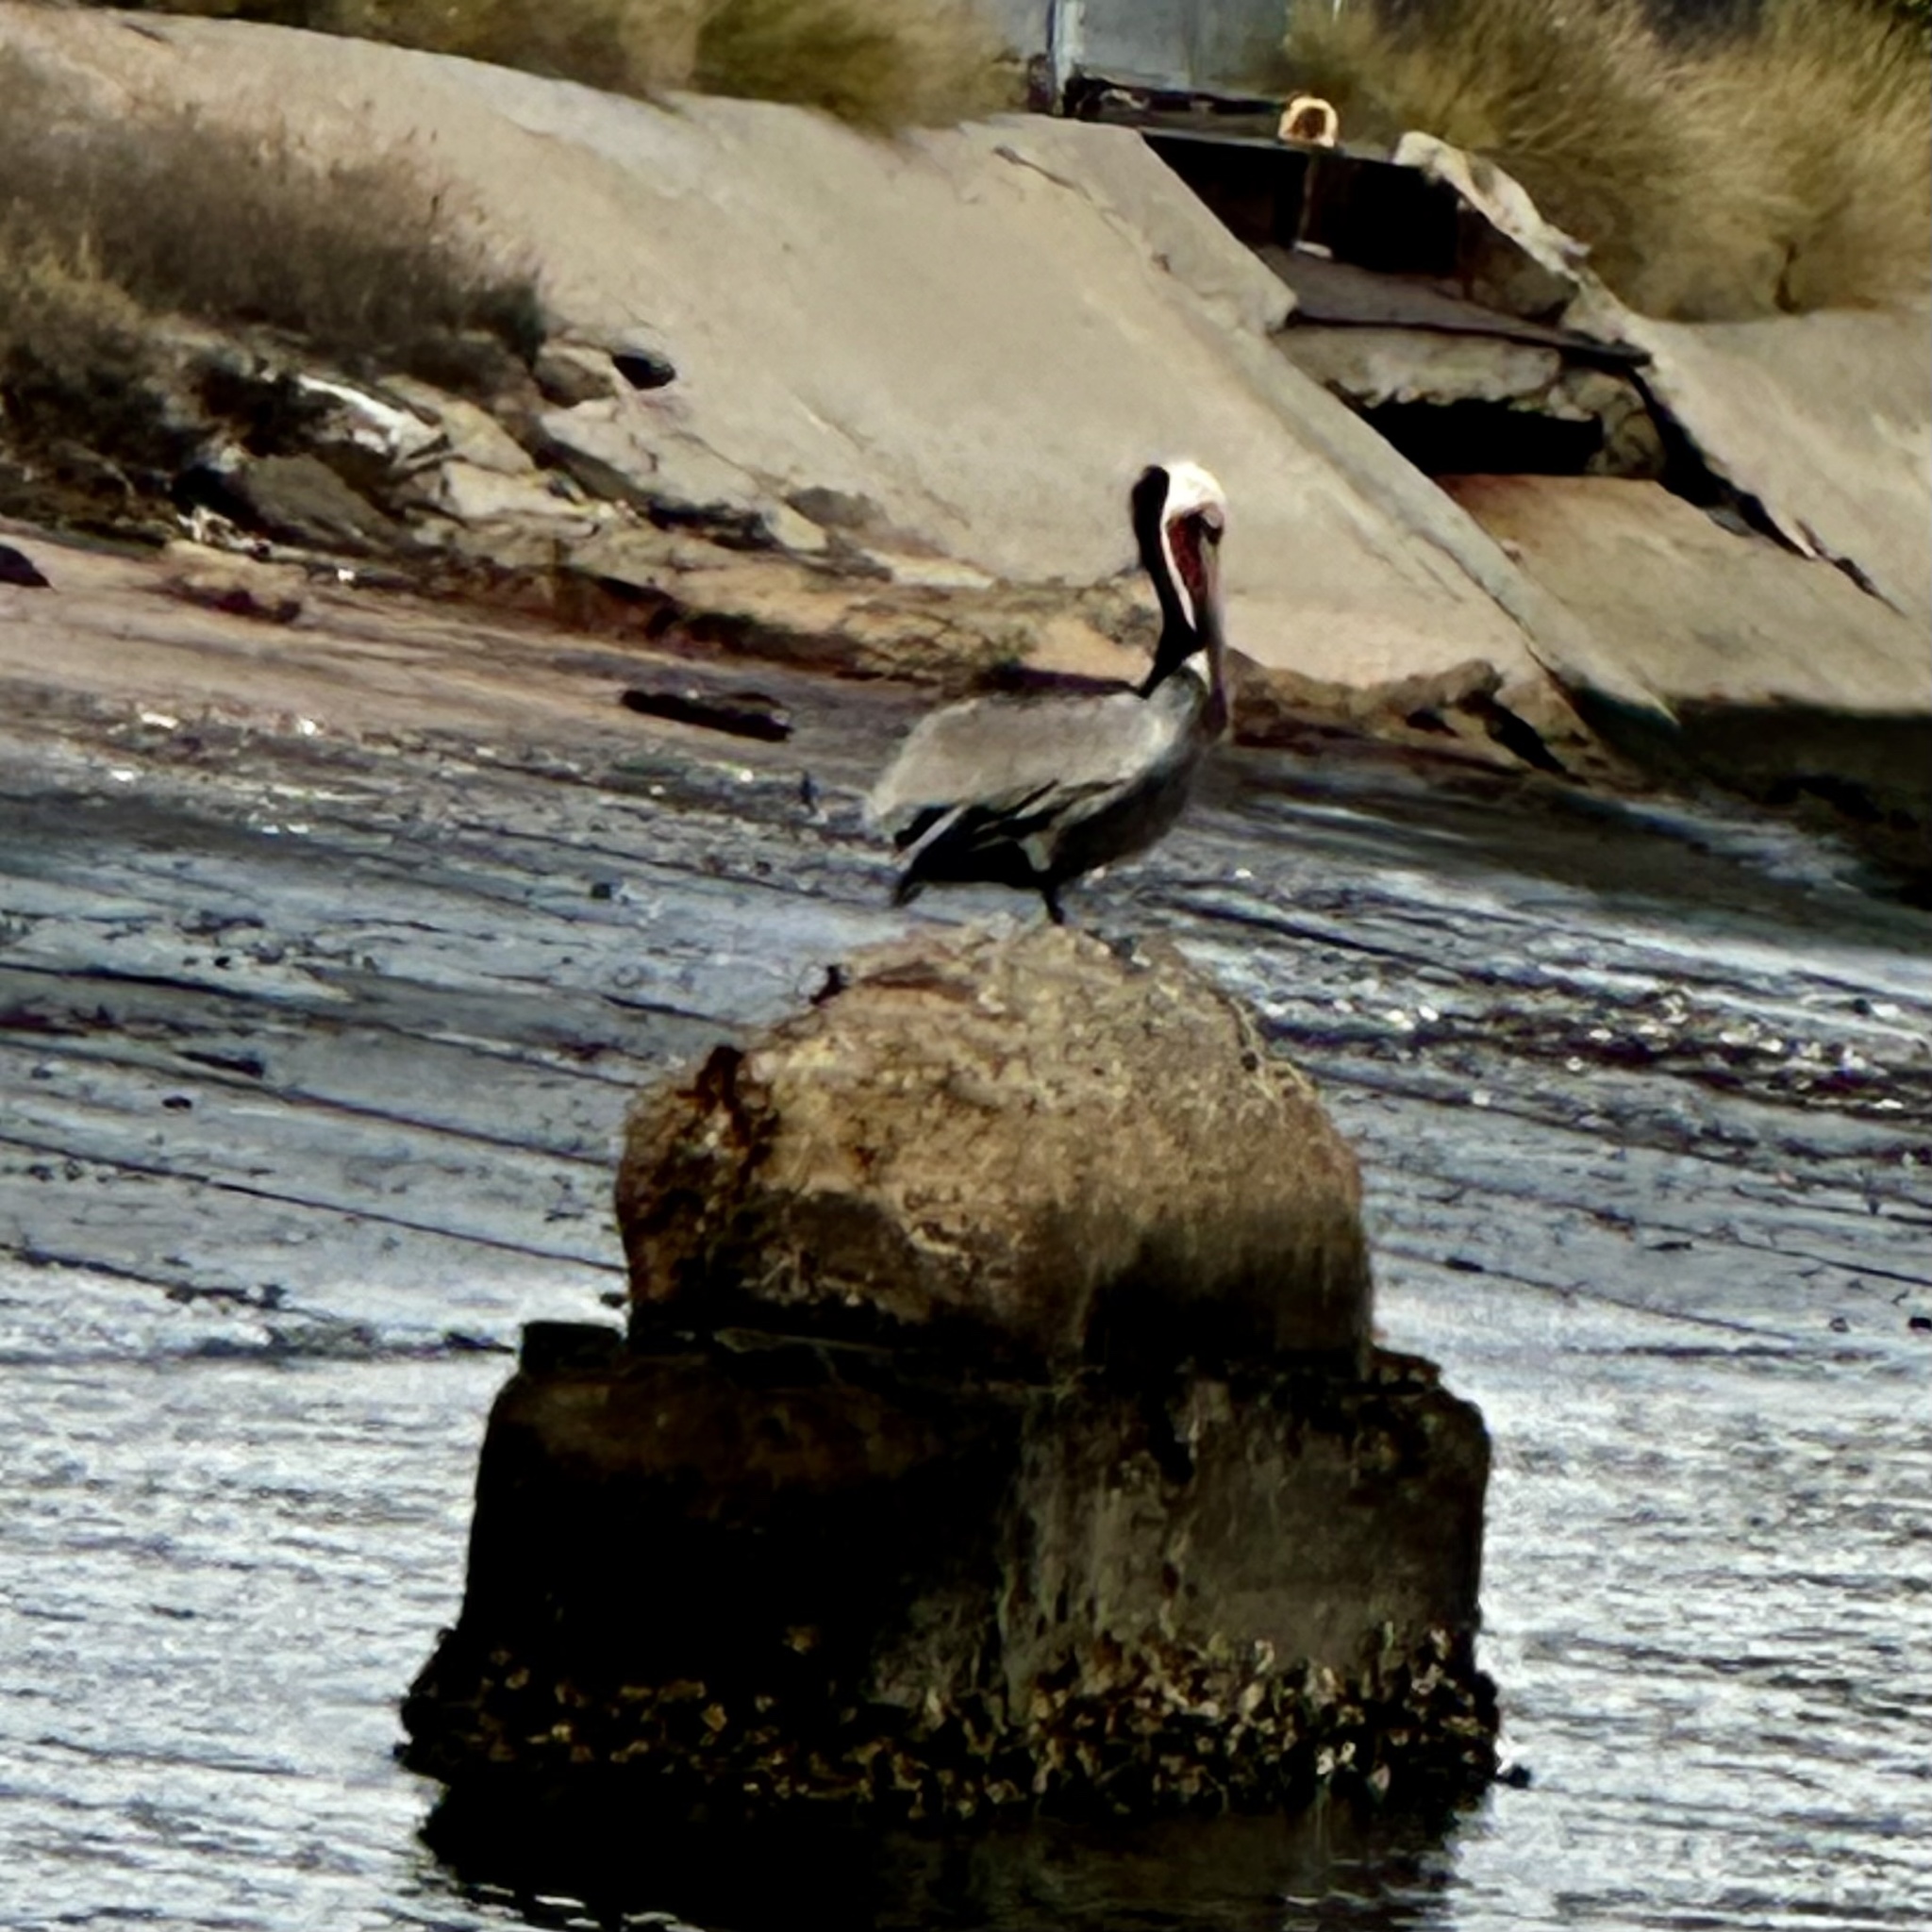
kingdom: Animalia
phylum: Chordata
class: Aves
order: Pelecaniformes
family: Pelecanidae
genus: Pelecanus
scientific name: Pelecanus occidentalis
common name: Brown pelican
